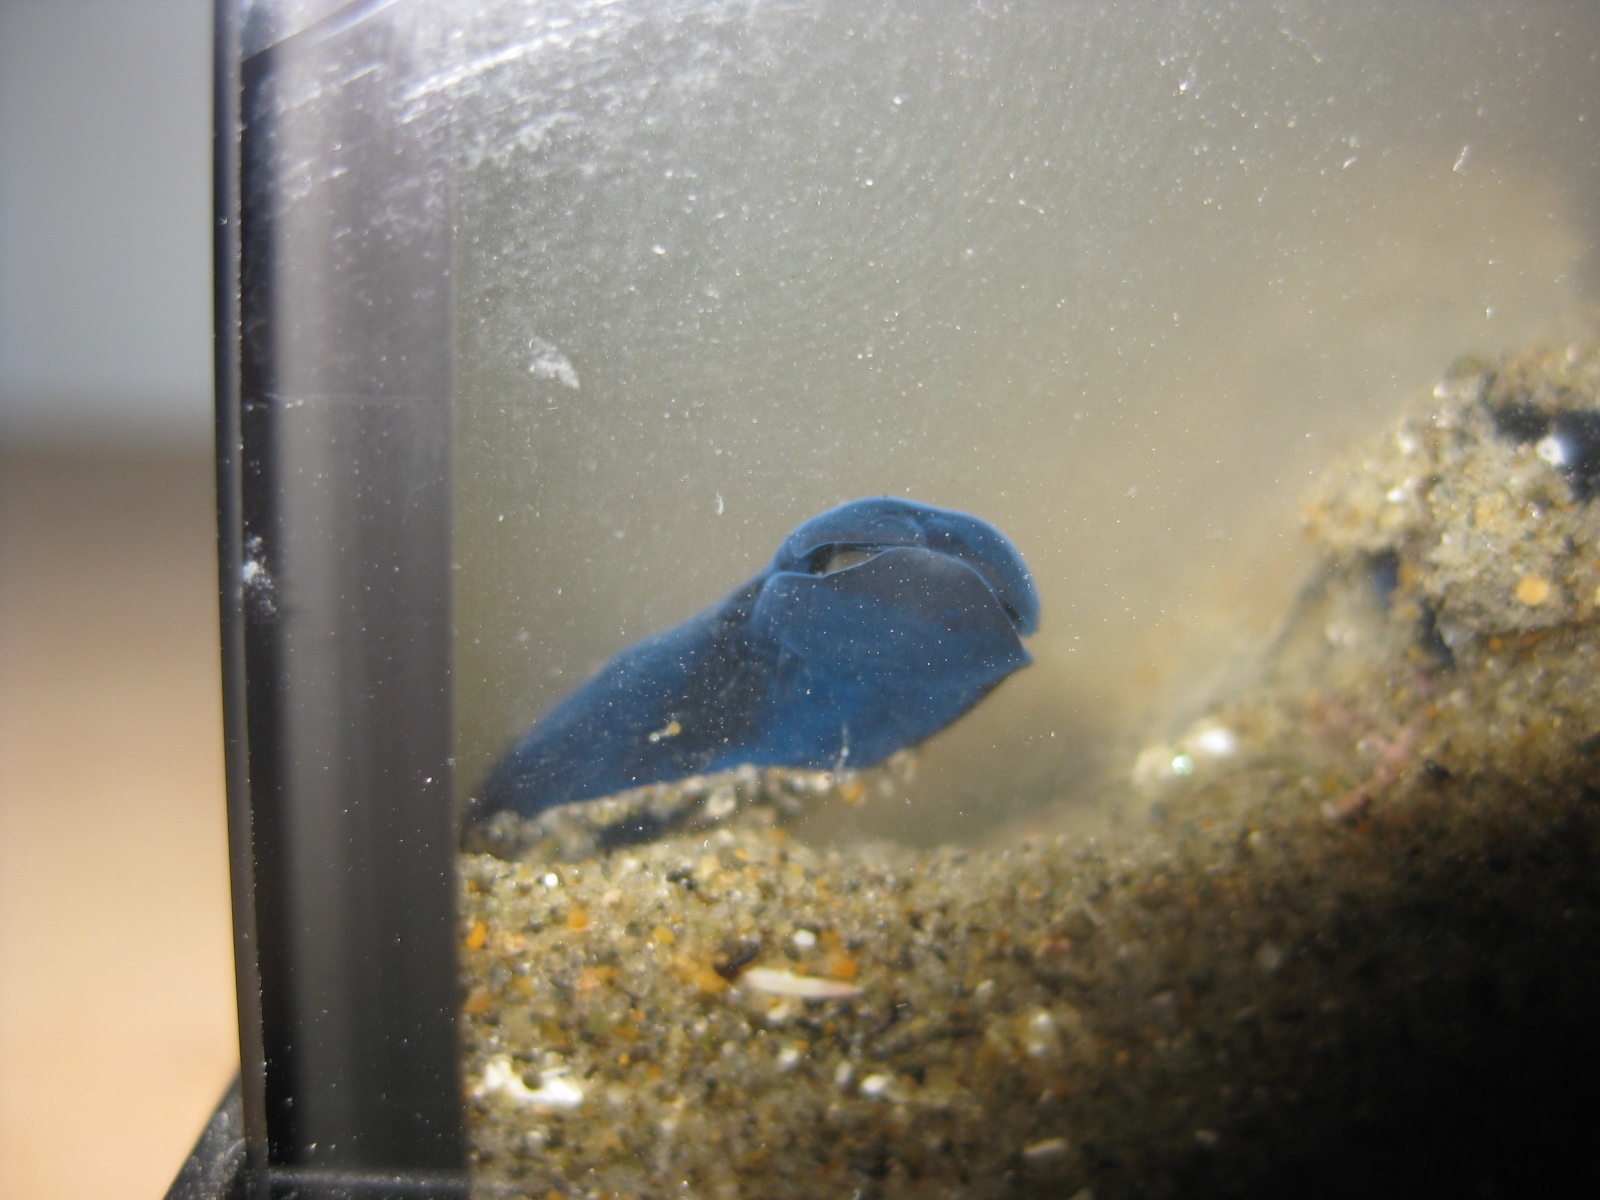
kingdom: Animalia
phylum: Mollusca
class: Gastropoda
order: Cephalaspidea
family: Aglajidae
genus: Melanochlamys
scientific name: Melanochlamys cylindrica
